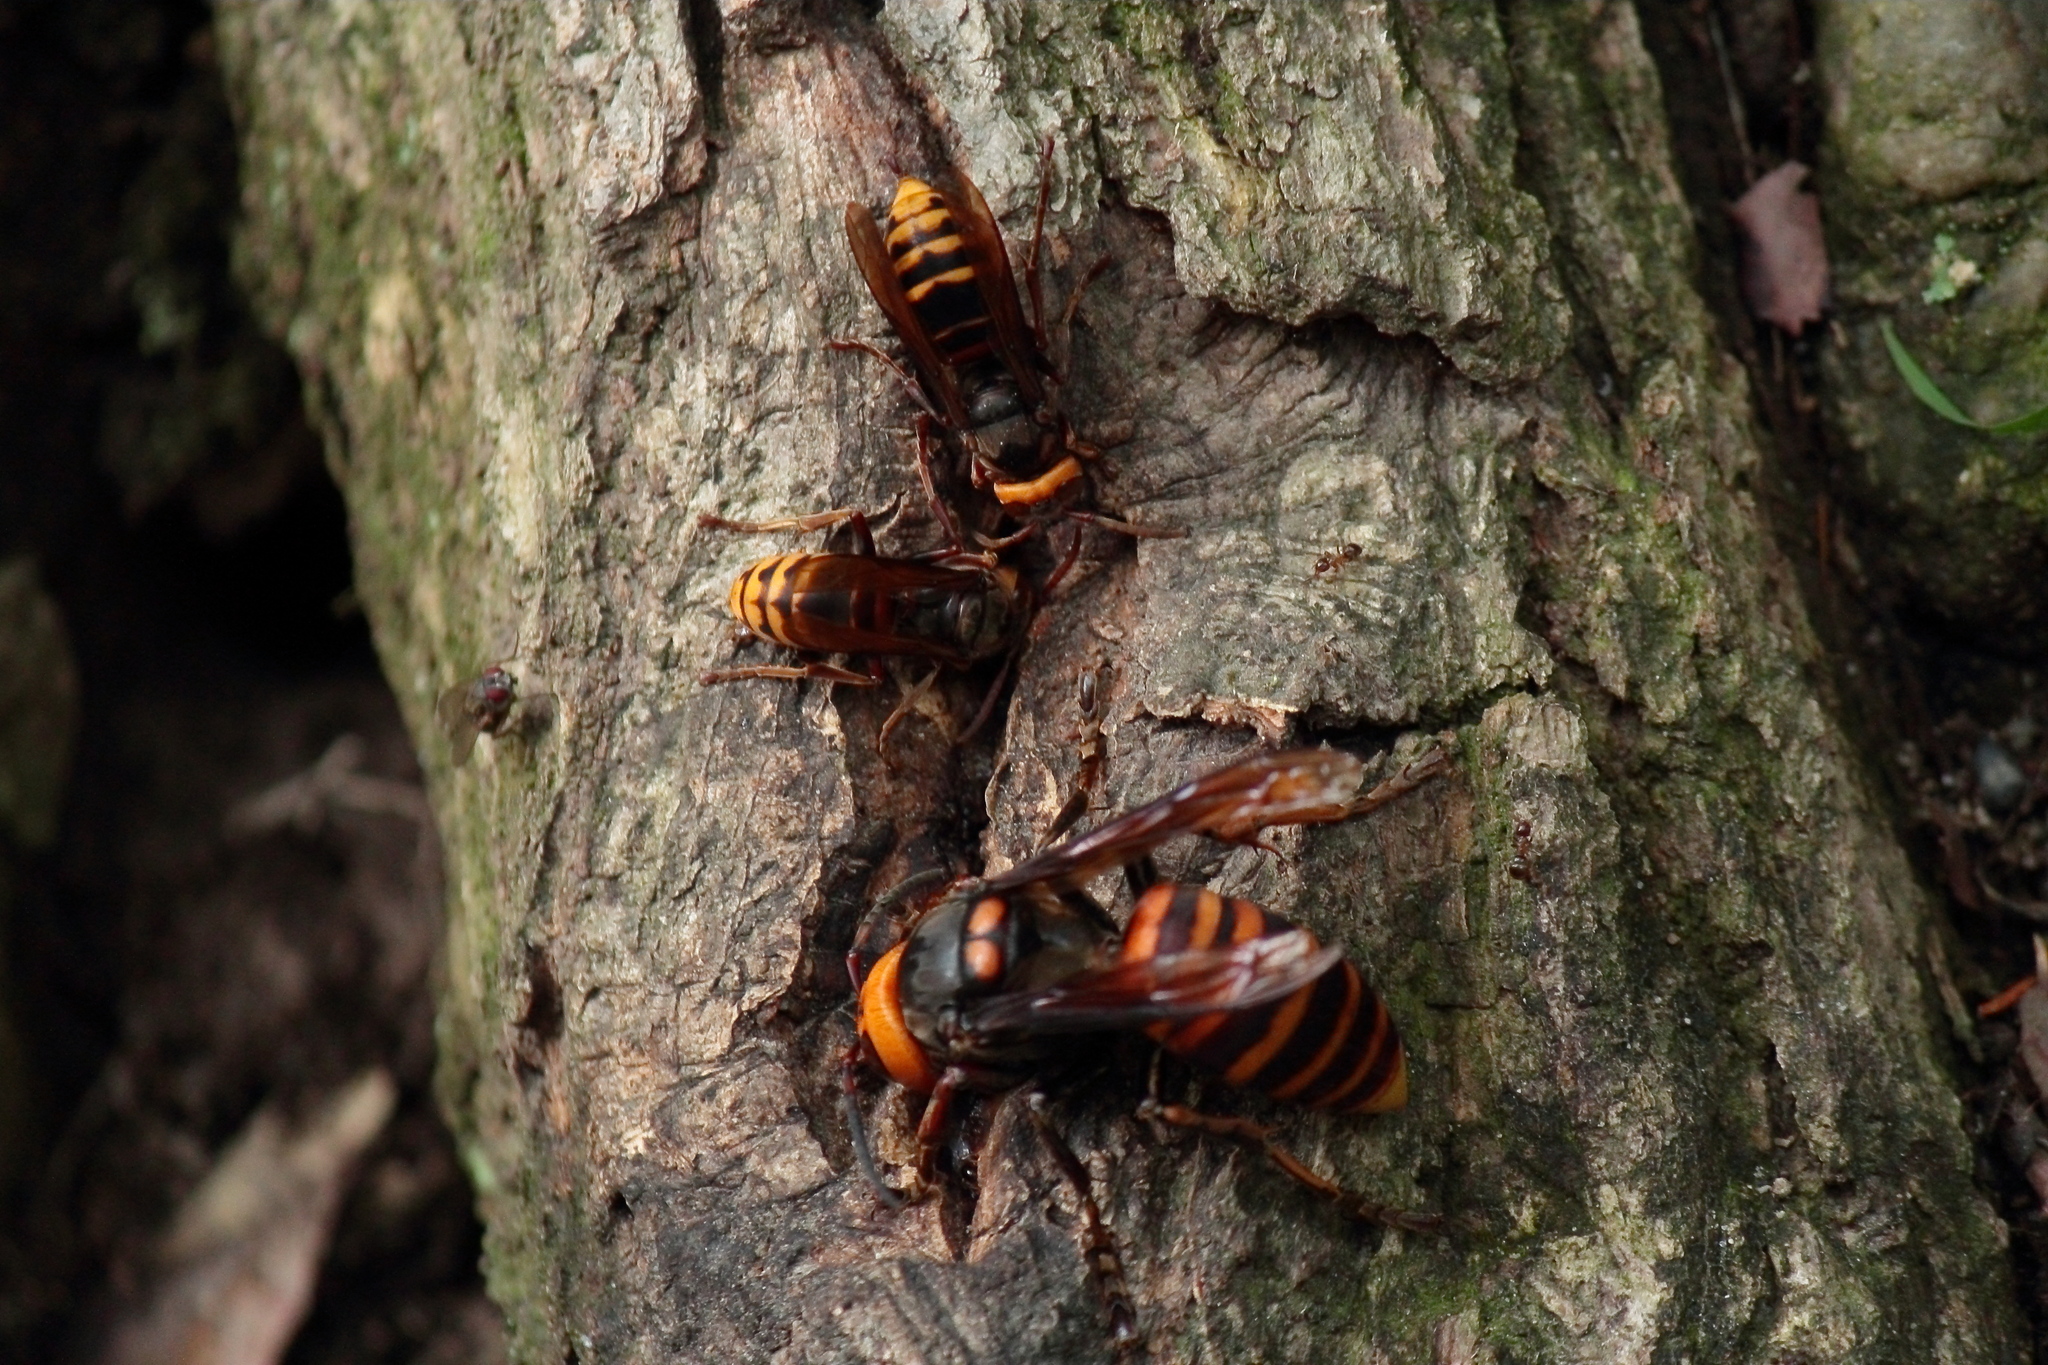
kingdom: Animalia
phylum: Arthropoda
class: Insecta
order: Hymenoptera
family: Vespidae
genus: Vespa
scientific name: Vespa crabro
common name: Hornet
